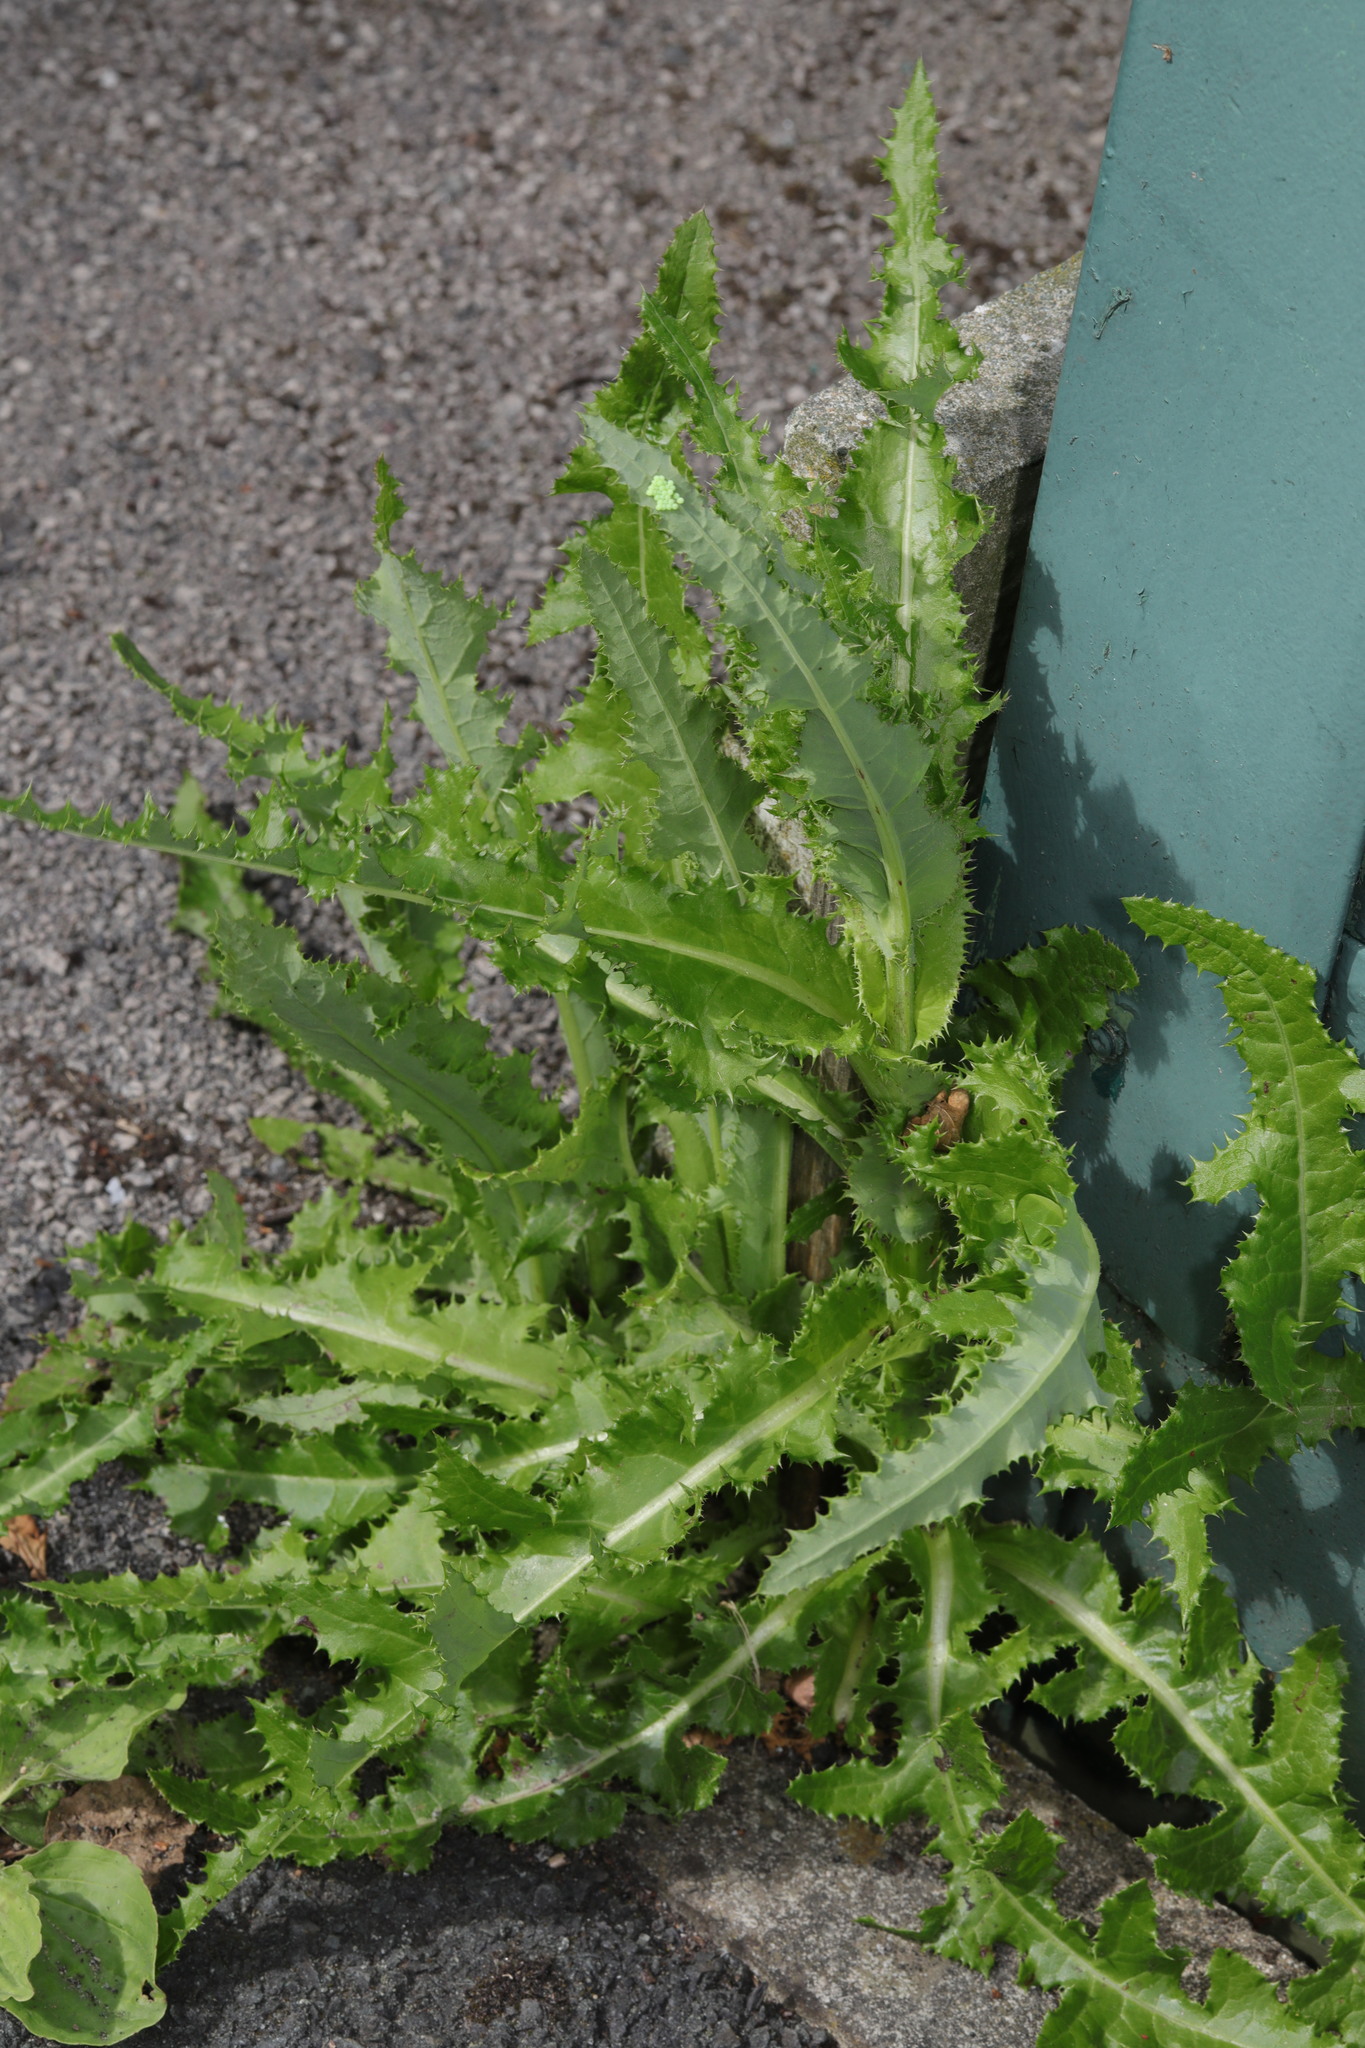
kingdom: Plantae
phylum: Tracheophyta
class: Magnoliopsida
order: Asterales
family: Asteraceae
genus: Sonchus
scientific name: Sonchus asper
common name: Prickly sow-thistle
